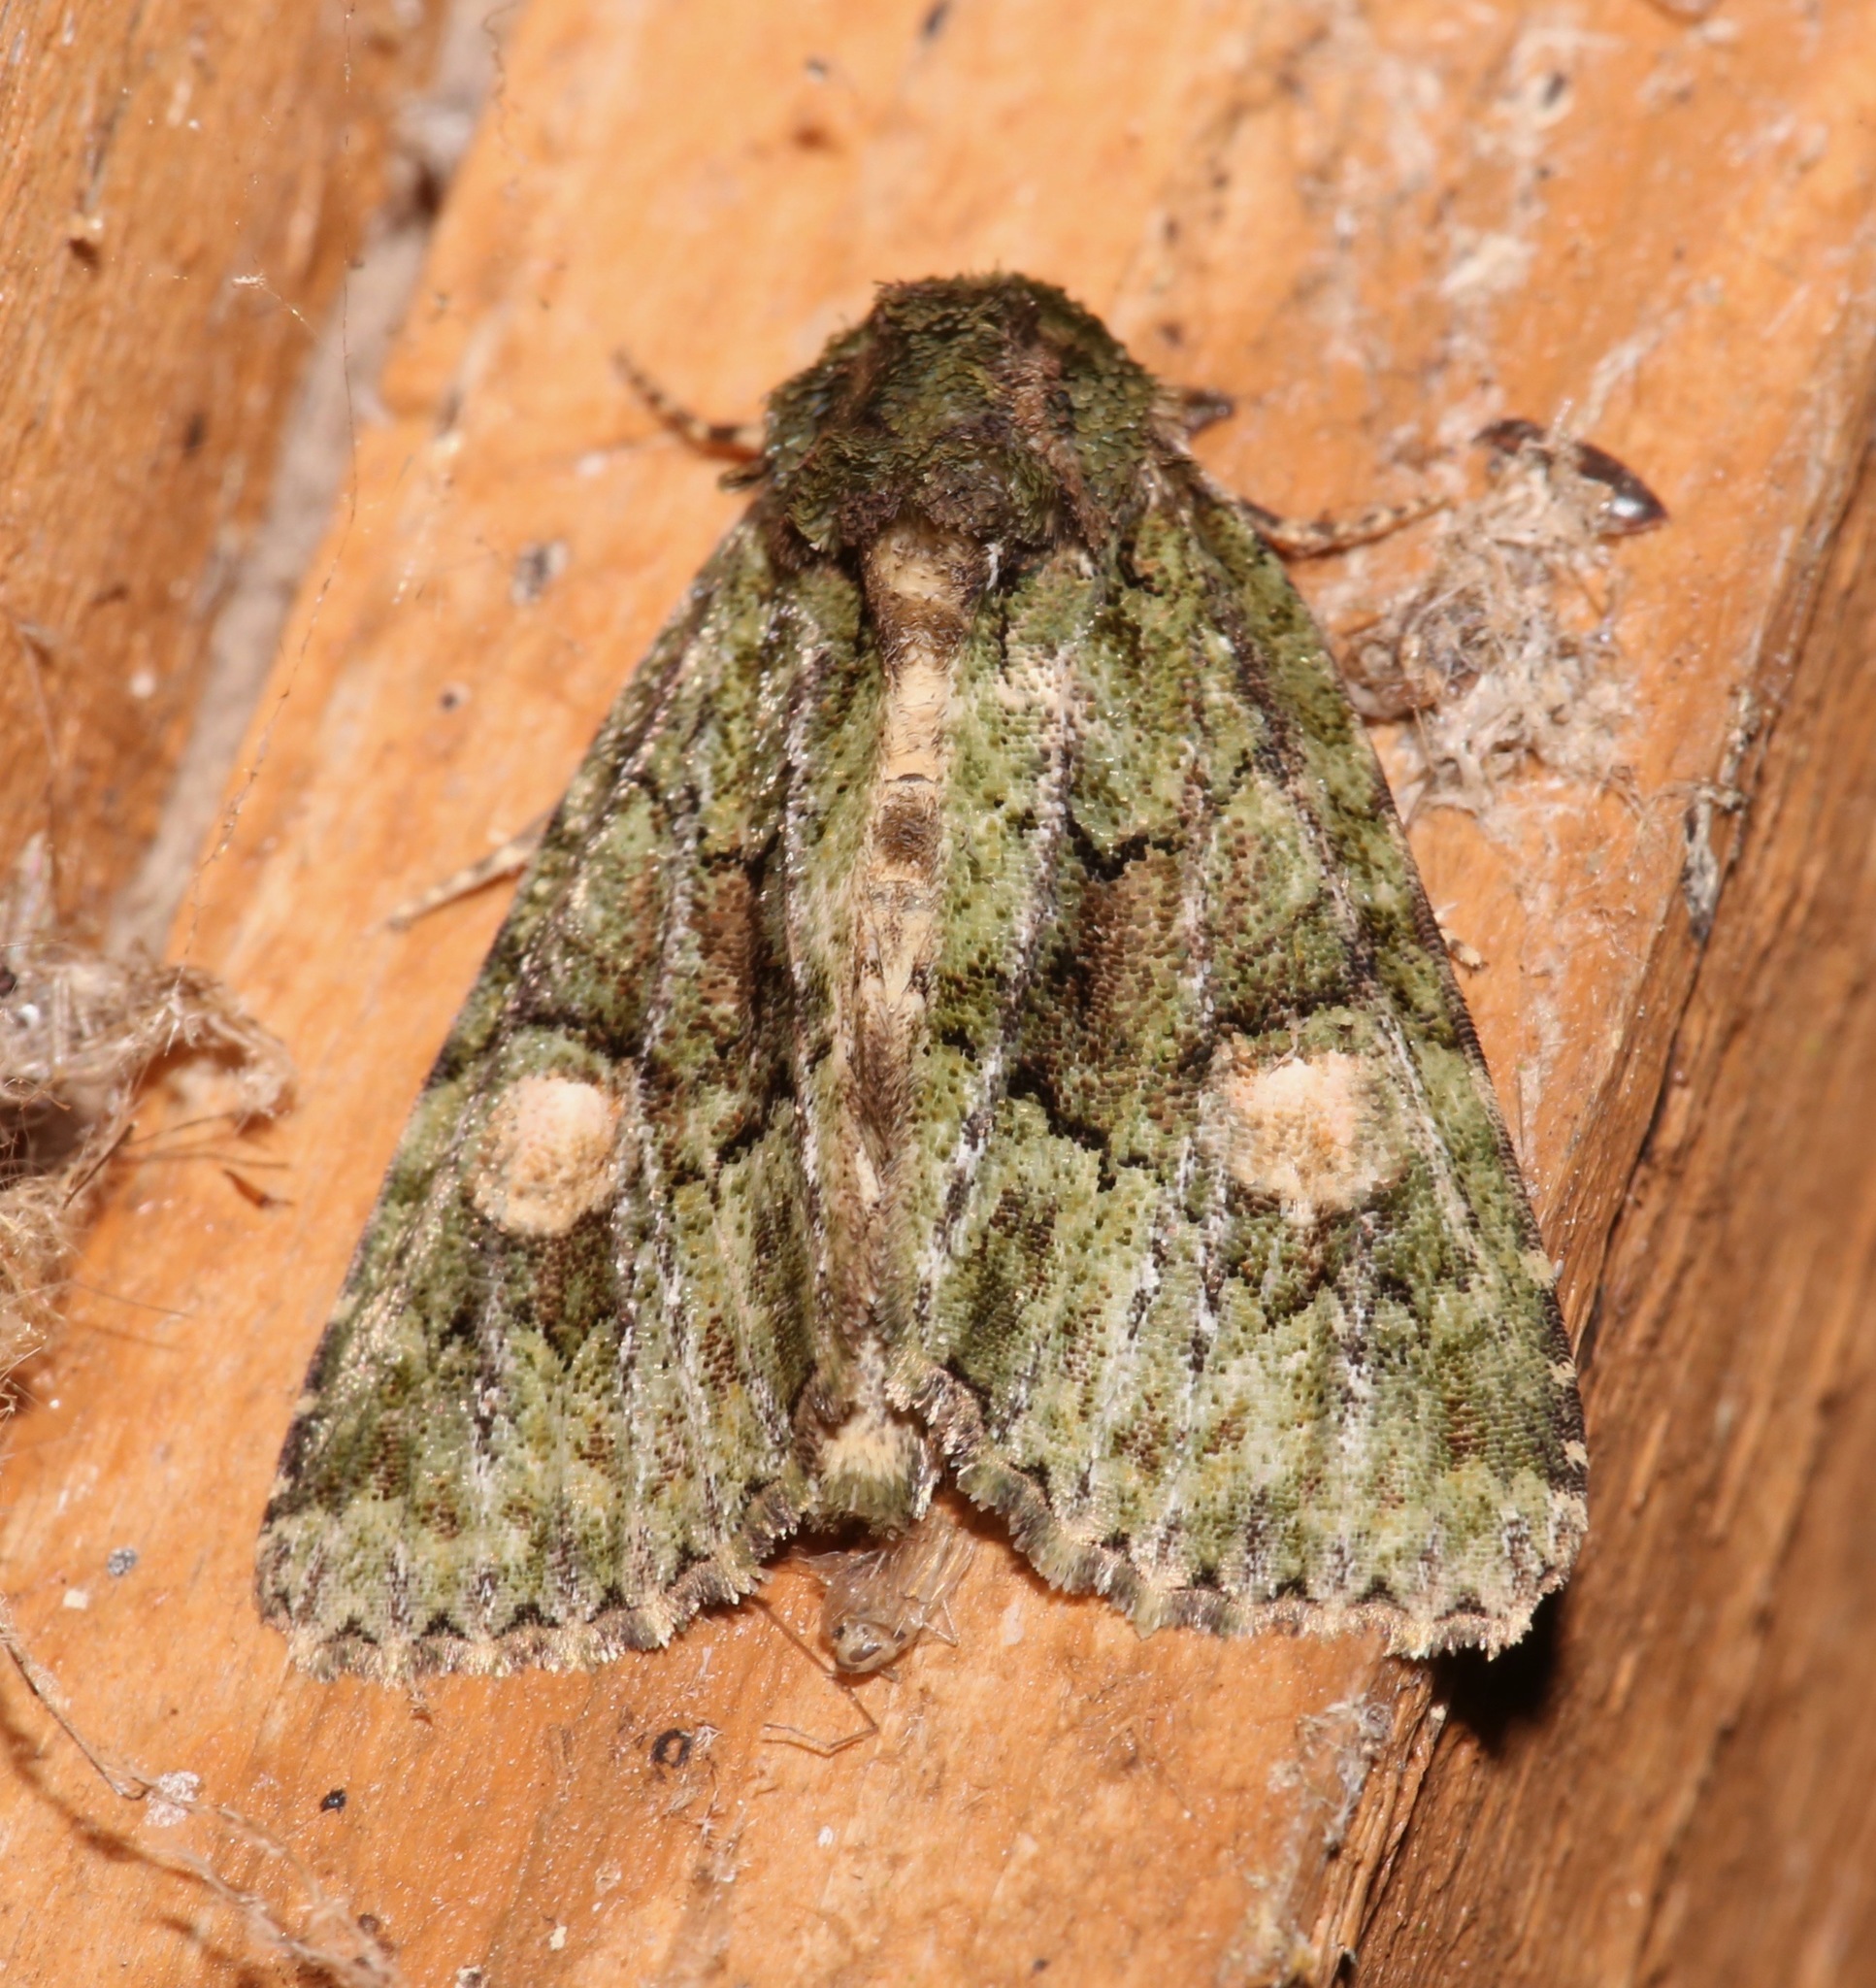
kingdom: Animalia
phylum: Arthropoda
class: Insecta
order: Lepidoptera
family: Noctuidae
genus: Phosphila
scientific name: Phosphila miselioides
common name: Spotted phosphila moth
